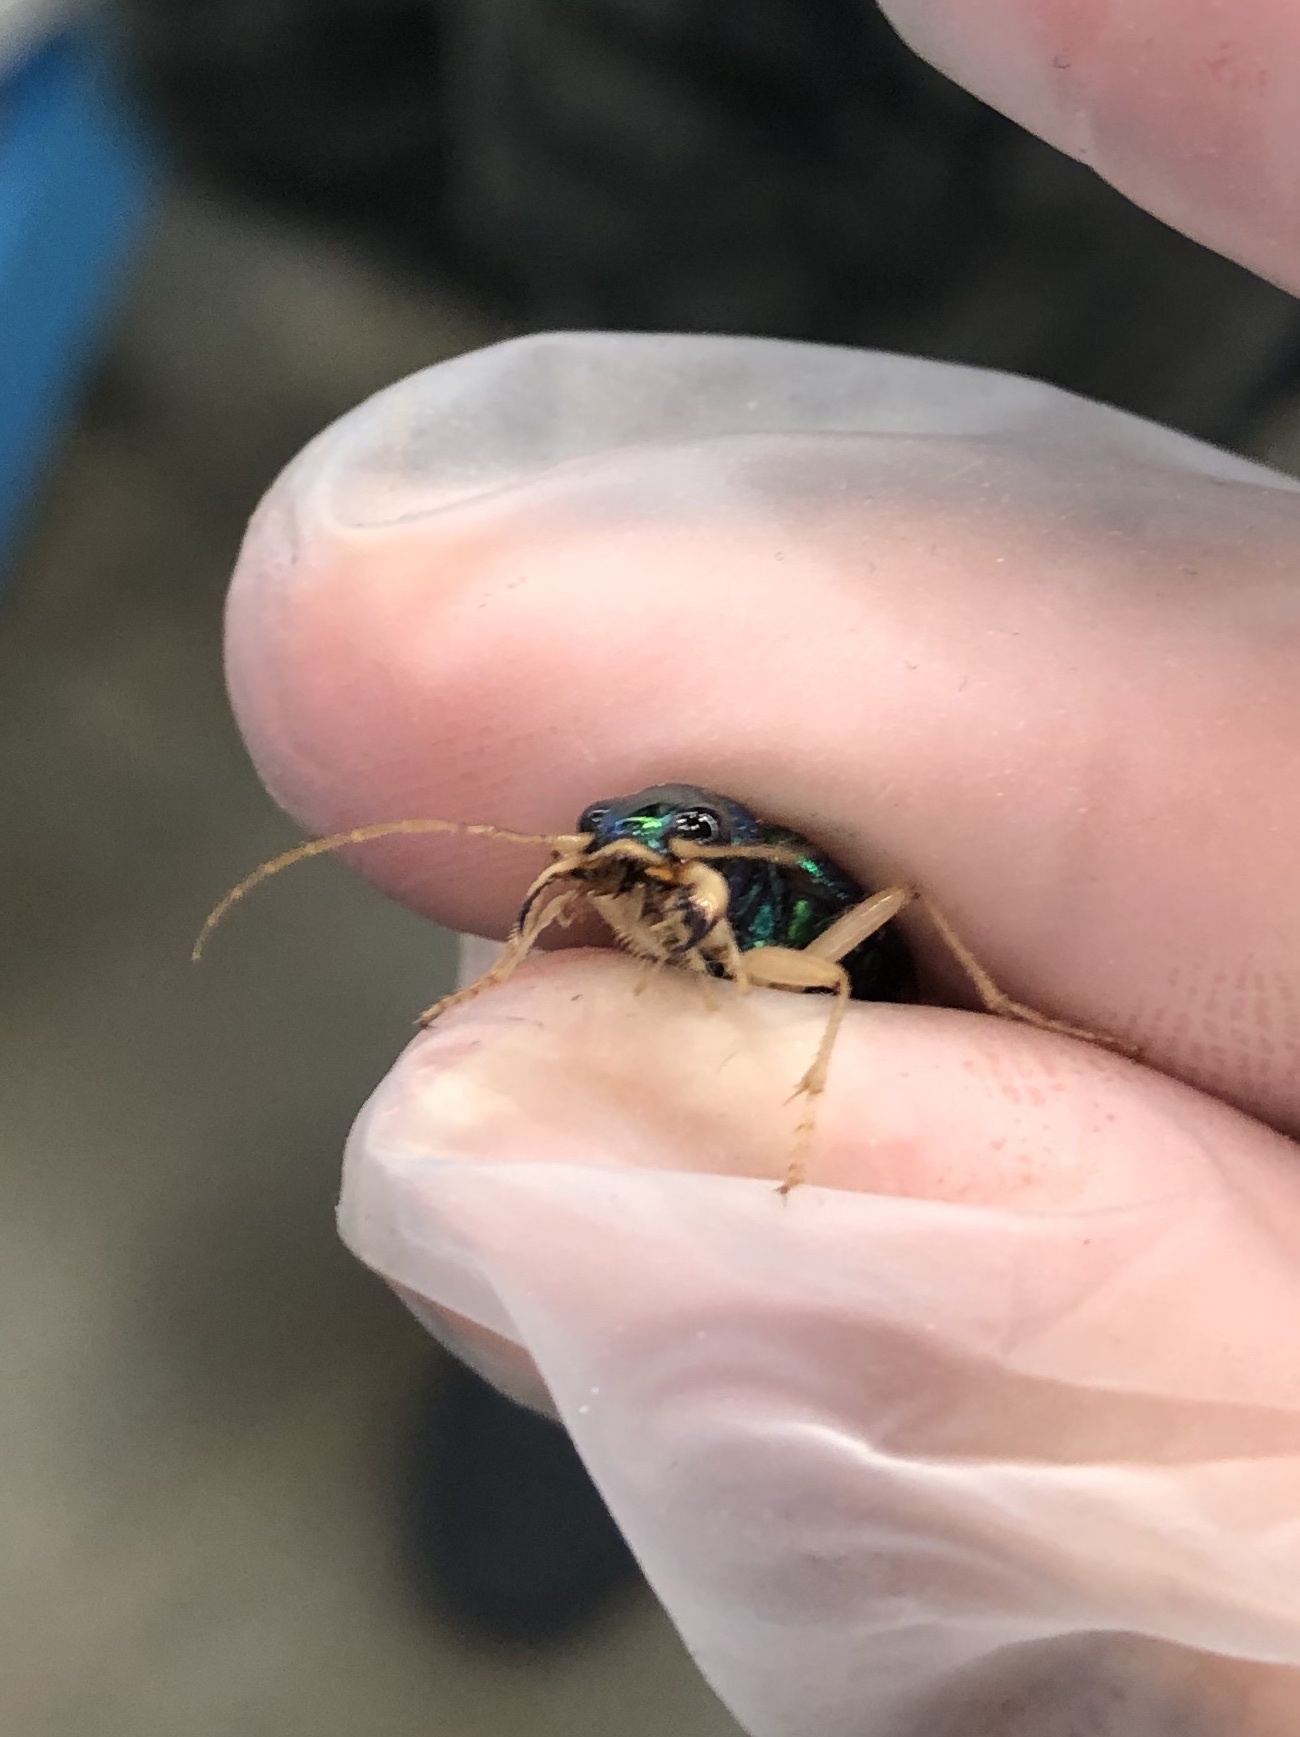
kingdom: Animalia
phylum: Arthropoda
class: Insecta
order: Coleoptera
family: Carabidae
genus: Tetracha
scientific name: Tetracha carolina
